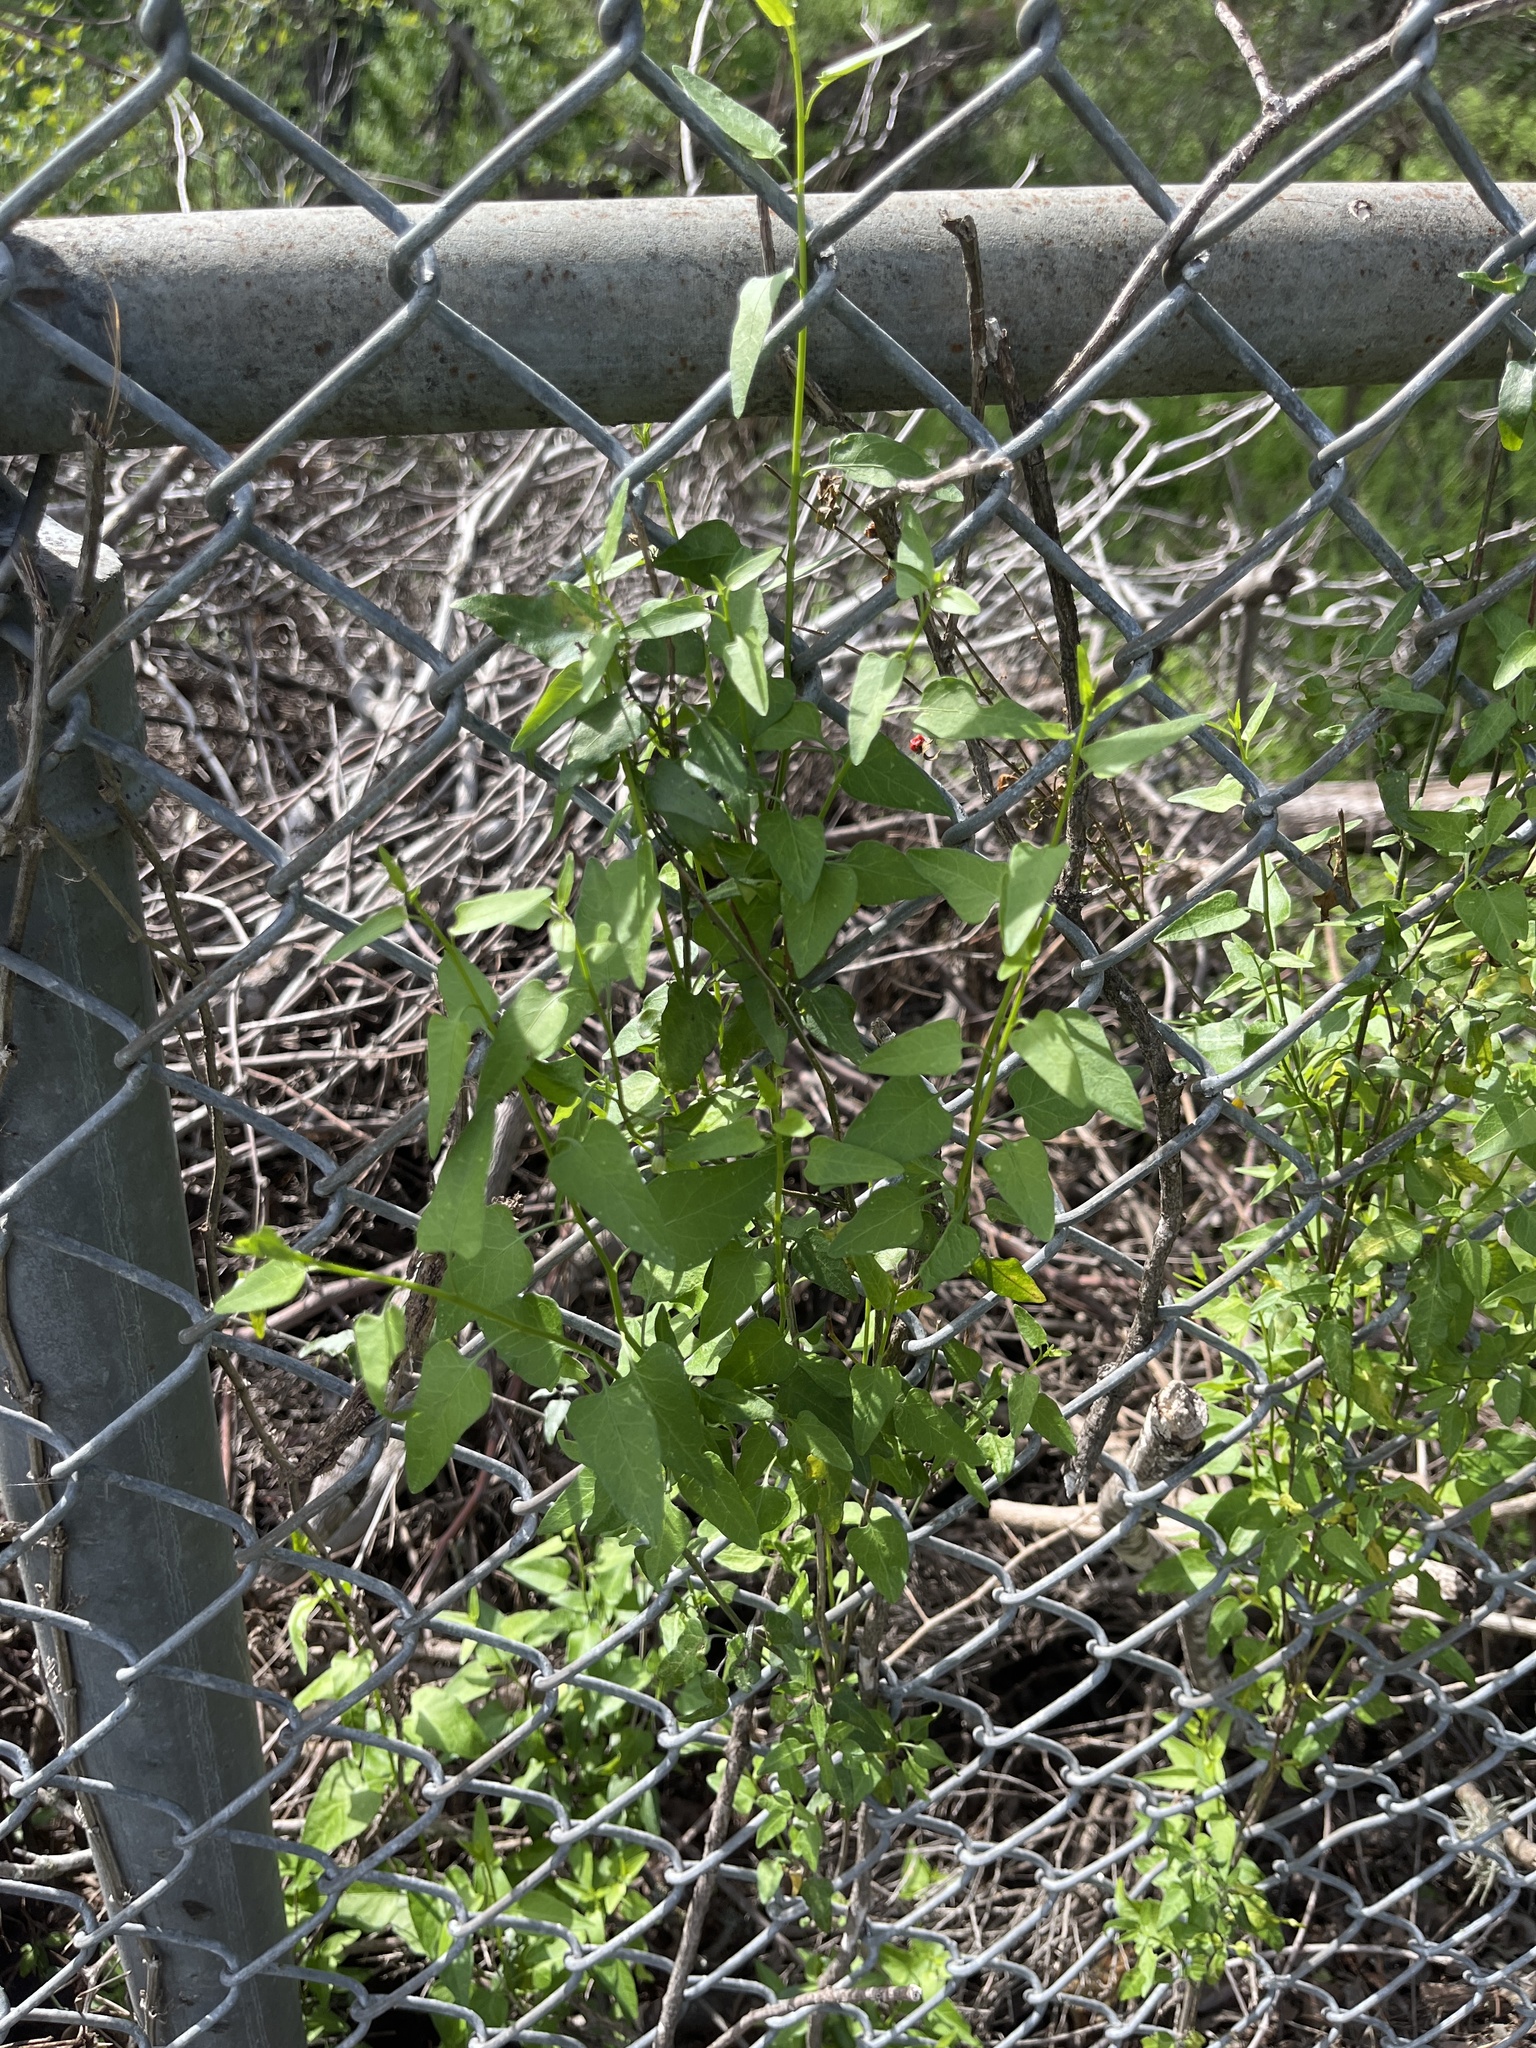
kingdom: Plantae
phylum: Tracheophyta
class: Magnoliopsida
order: Solanales
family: Solanaceae
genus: Solanum
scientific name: Solanum triquetrum
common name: Texas nightshade
